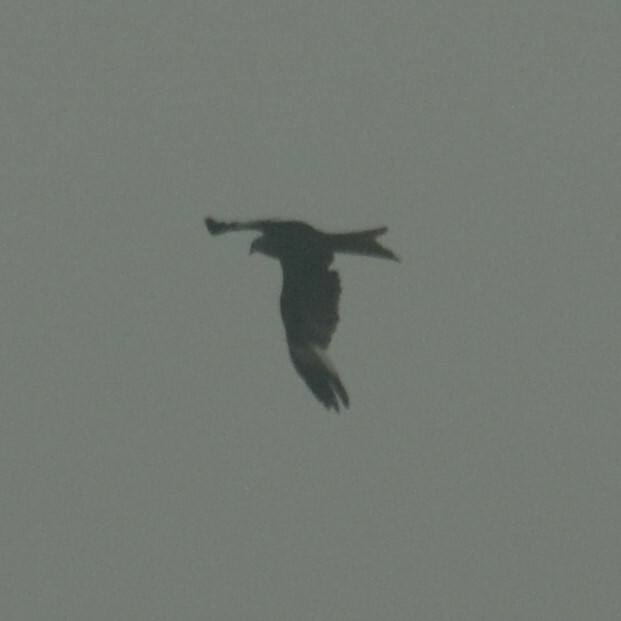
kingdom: Animalia
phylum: Chordata
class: Aves
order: Accipitriformes
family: Accipitridae
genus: Milvus
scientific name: Milvus milvus
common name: Red kite
